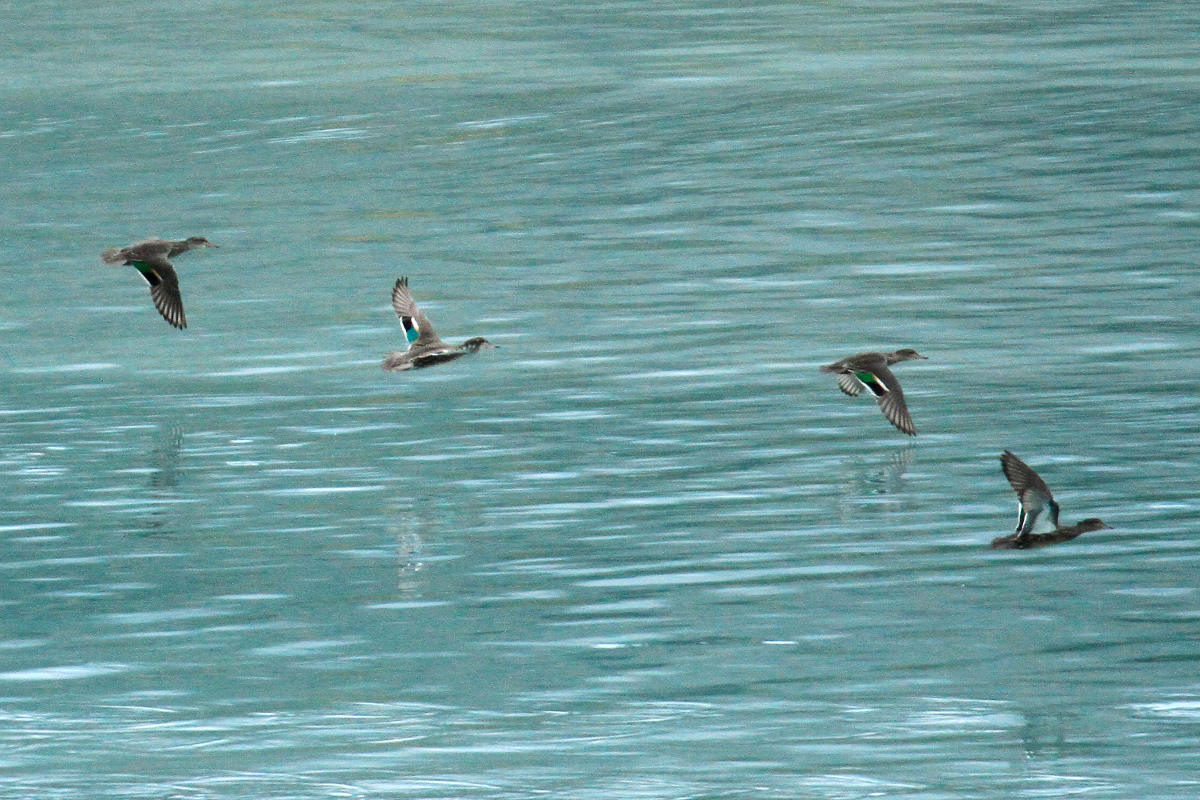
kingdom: Animalia
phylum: Chordata
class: Aves
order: Anseriformes
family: Anatidae
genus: Anas
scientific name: Anas crecca
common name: Eurasian teal
